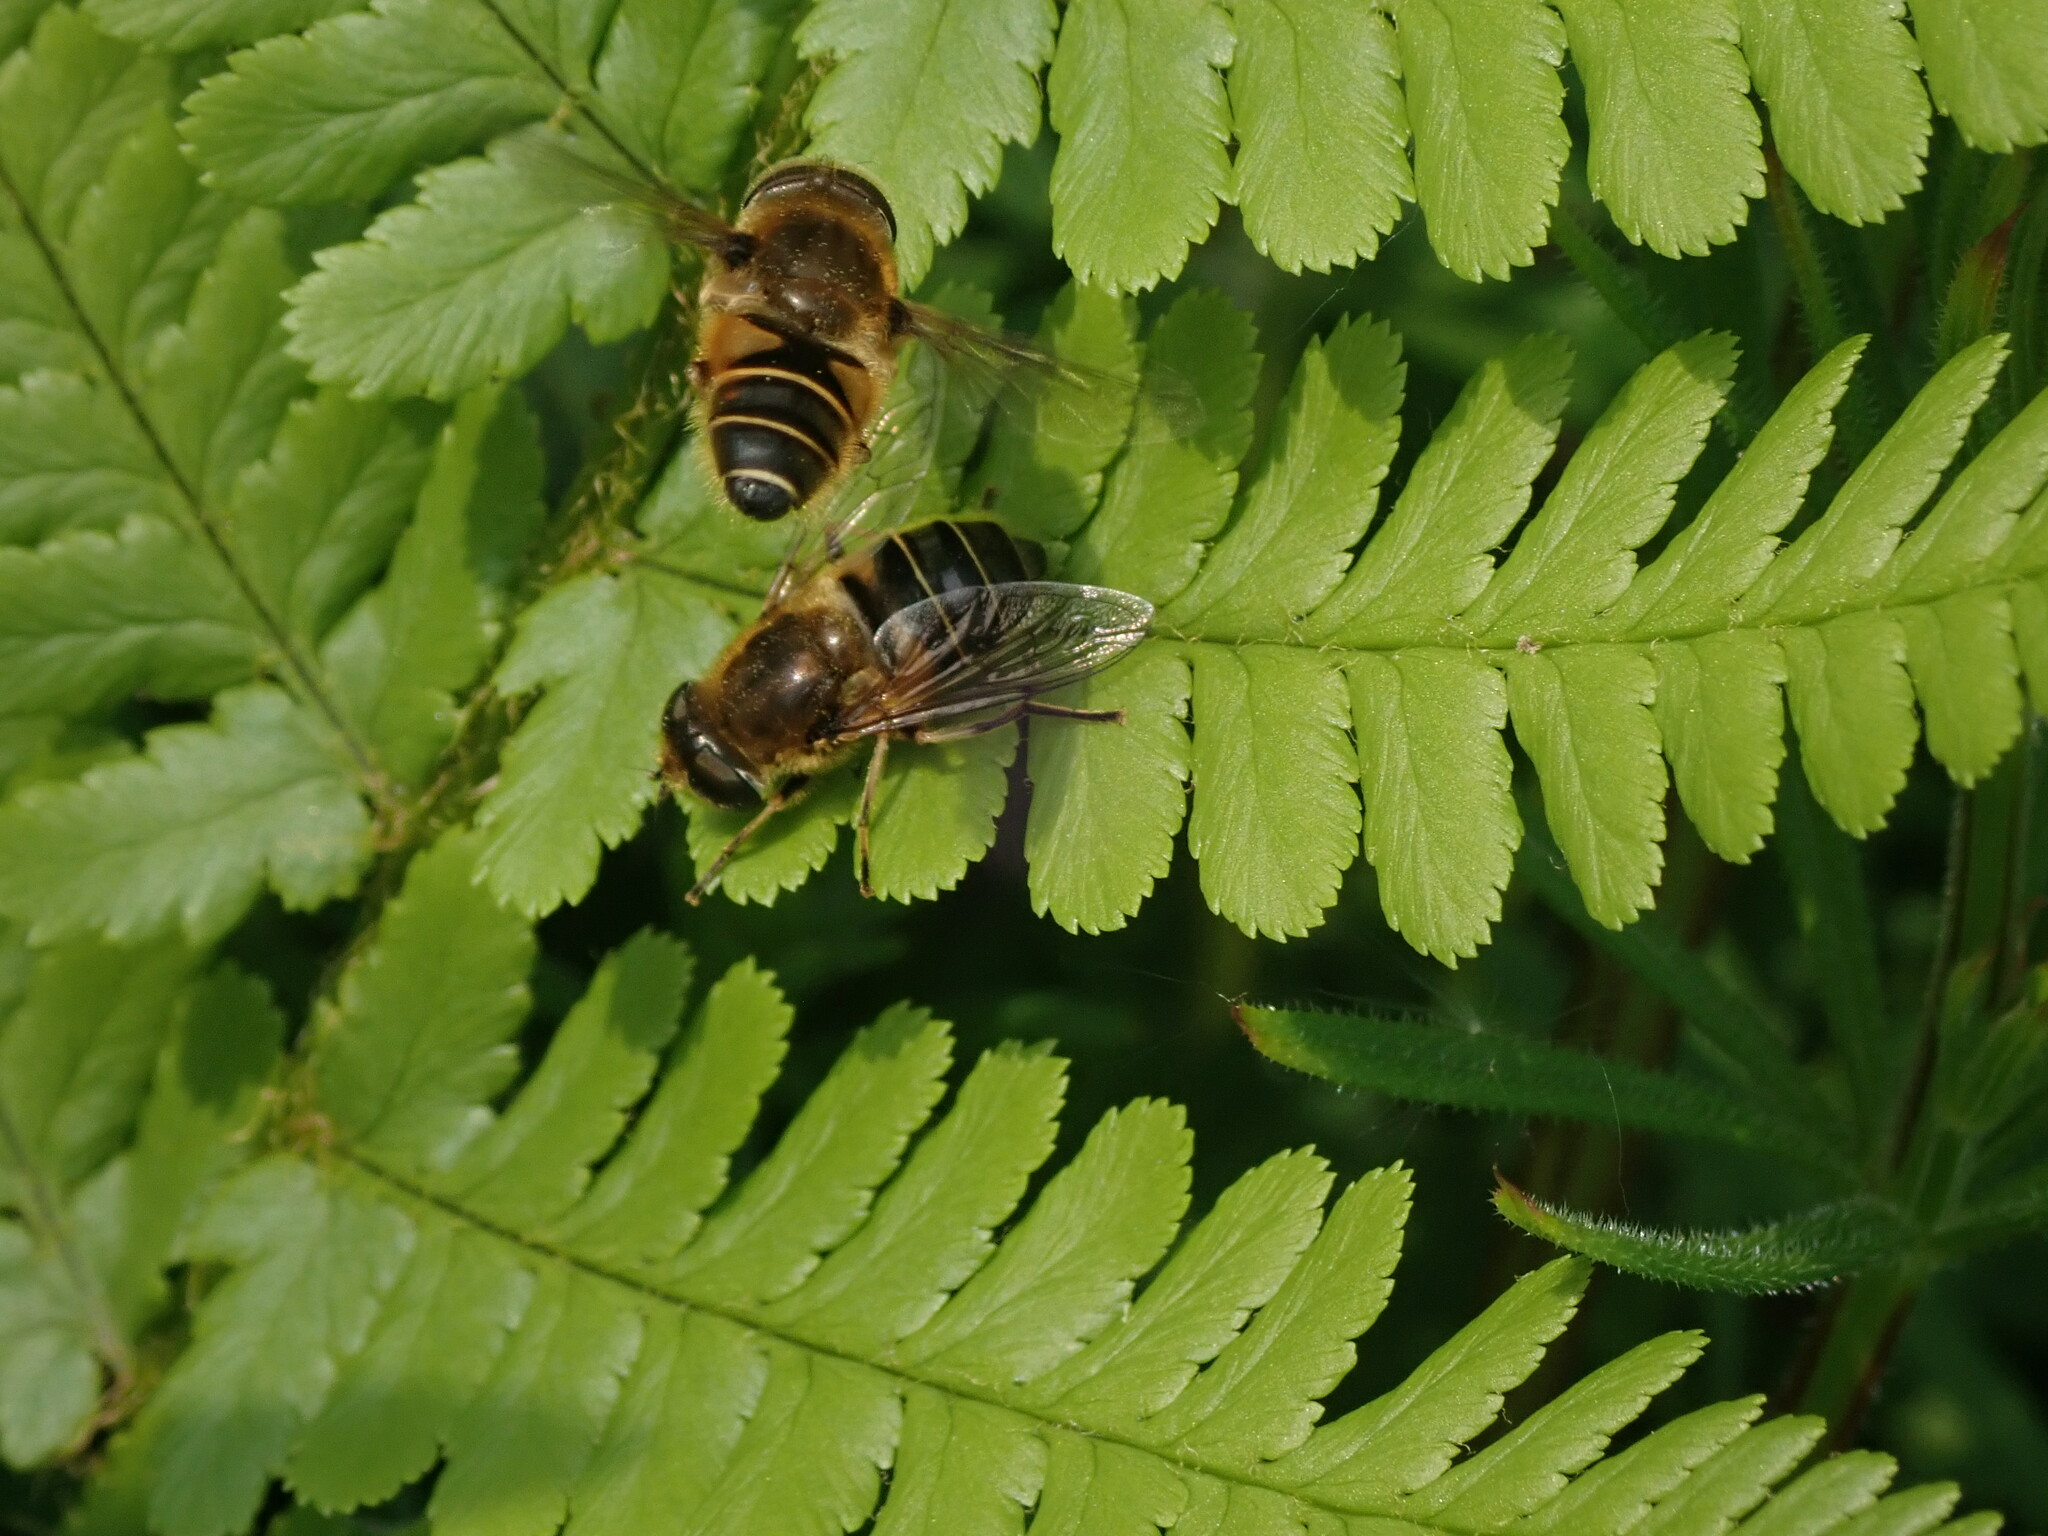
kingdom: Animalia
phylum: Arthropoda
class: Insecta
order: Diptera
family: Syrphidae
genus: Eristalis
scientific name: Eristalis nemorum
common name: Orange-spined drone fly
